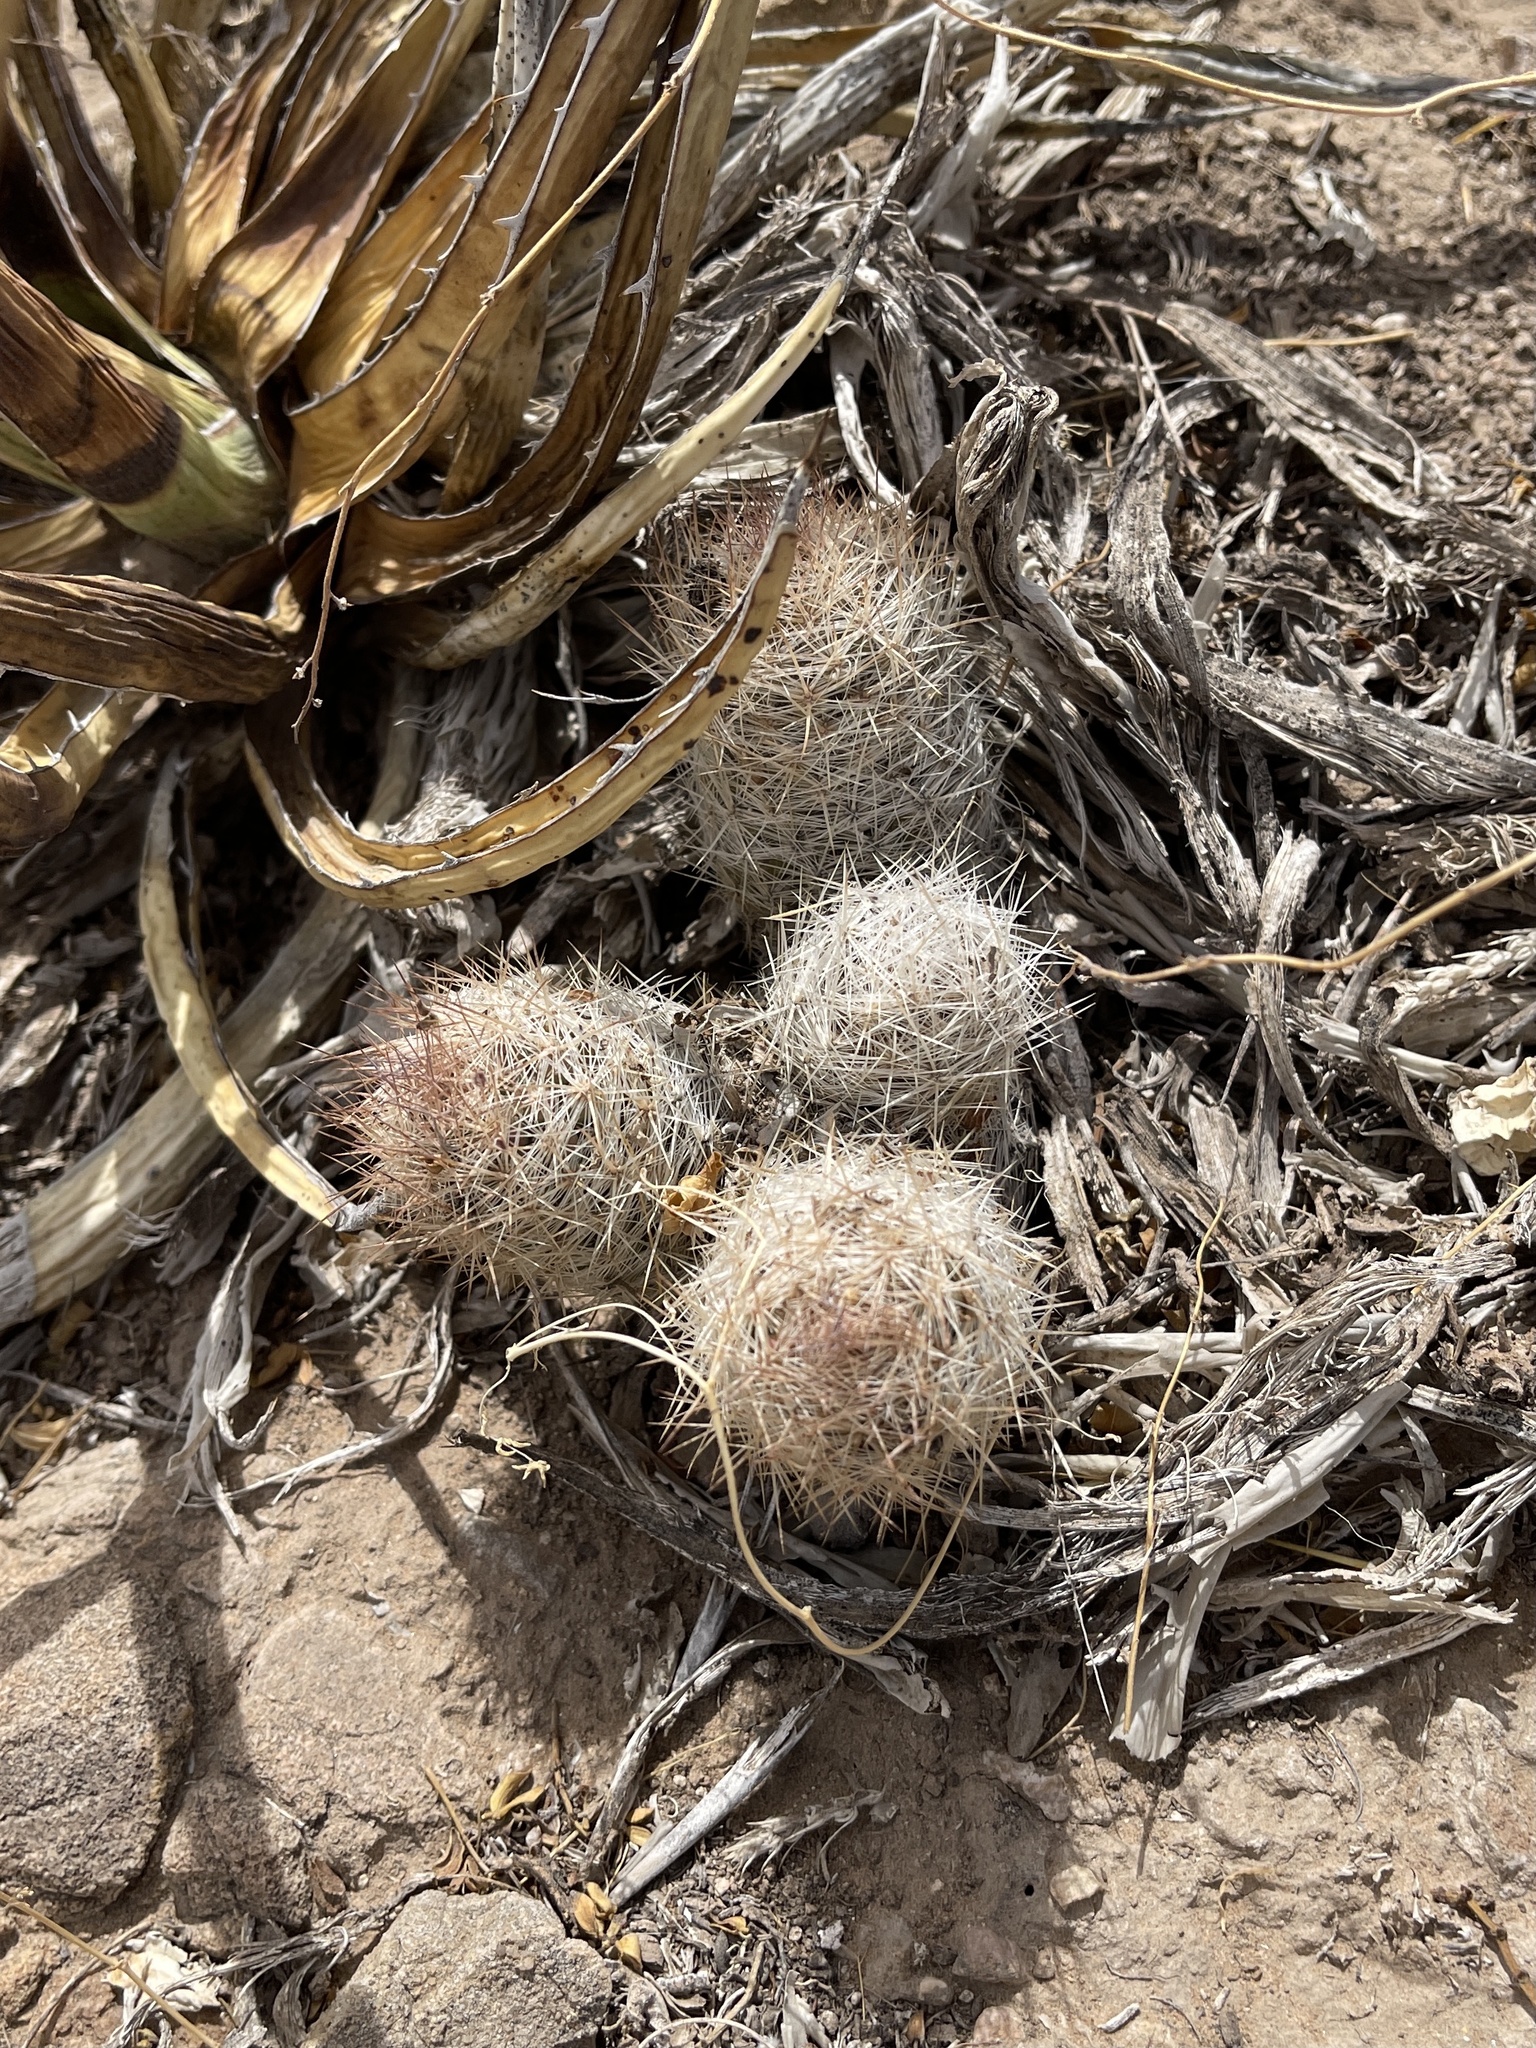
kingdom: Plantae
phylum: Tracheophyta
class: Magnoliopsida
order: Caryophyllales
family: Cactaceae
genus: Pelecyphora
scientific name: Pelecyphora tuberculosa
